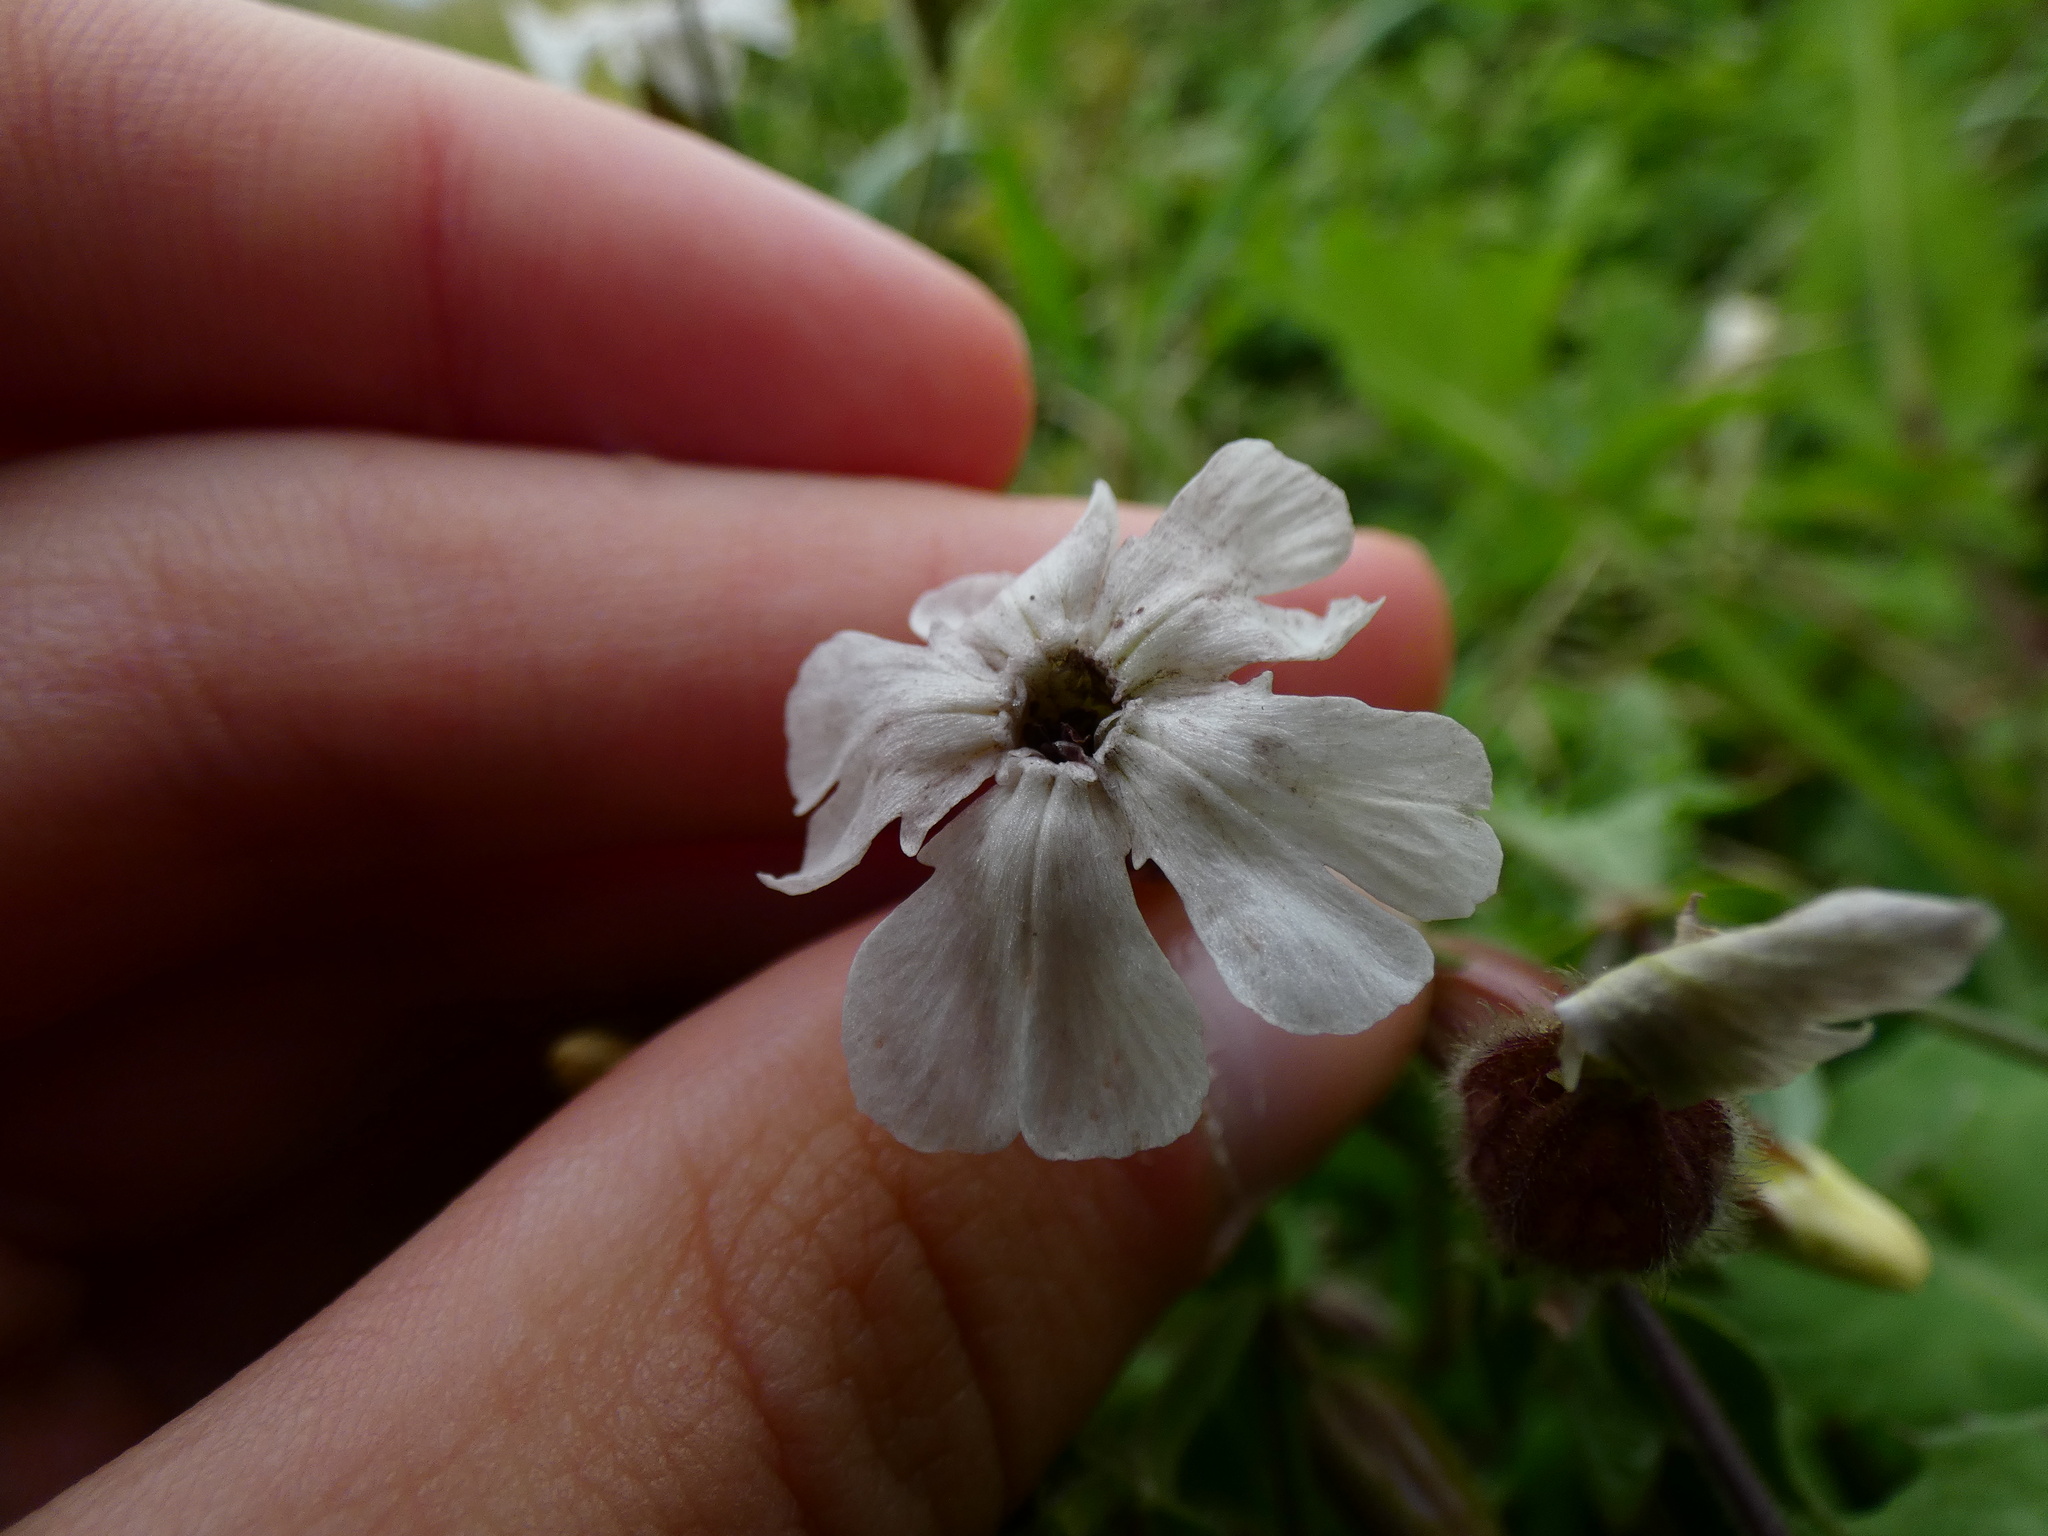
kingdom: Fungi
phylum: Basidiomycota
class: Microbotryomycetes
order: Microbotryales
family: Microbotryaceae
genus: Microbotryum
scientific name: Microbotryum lychnidis-dioicae
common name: Campion anther smut
